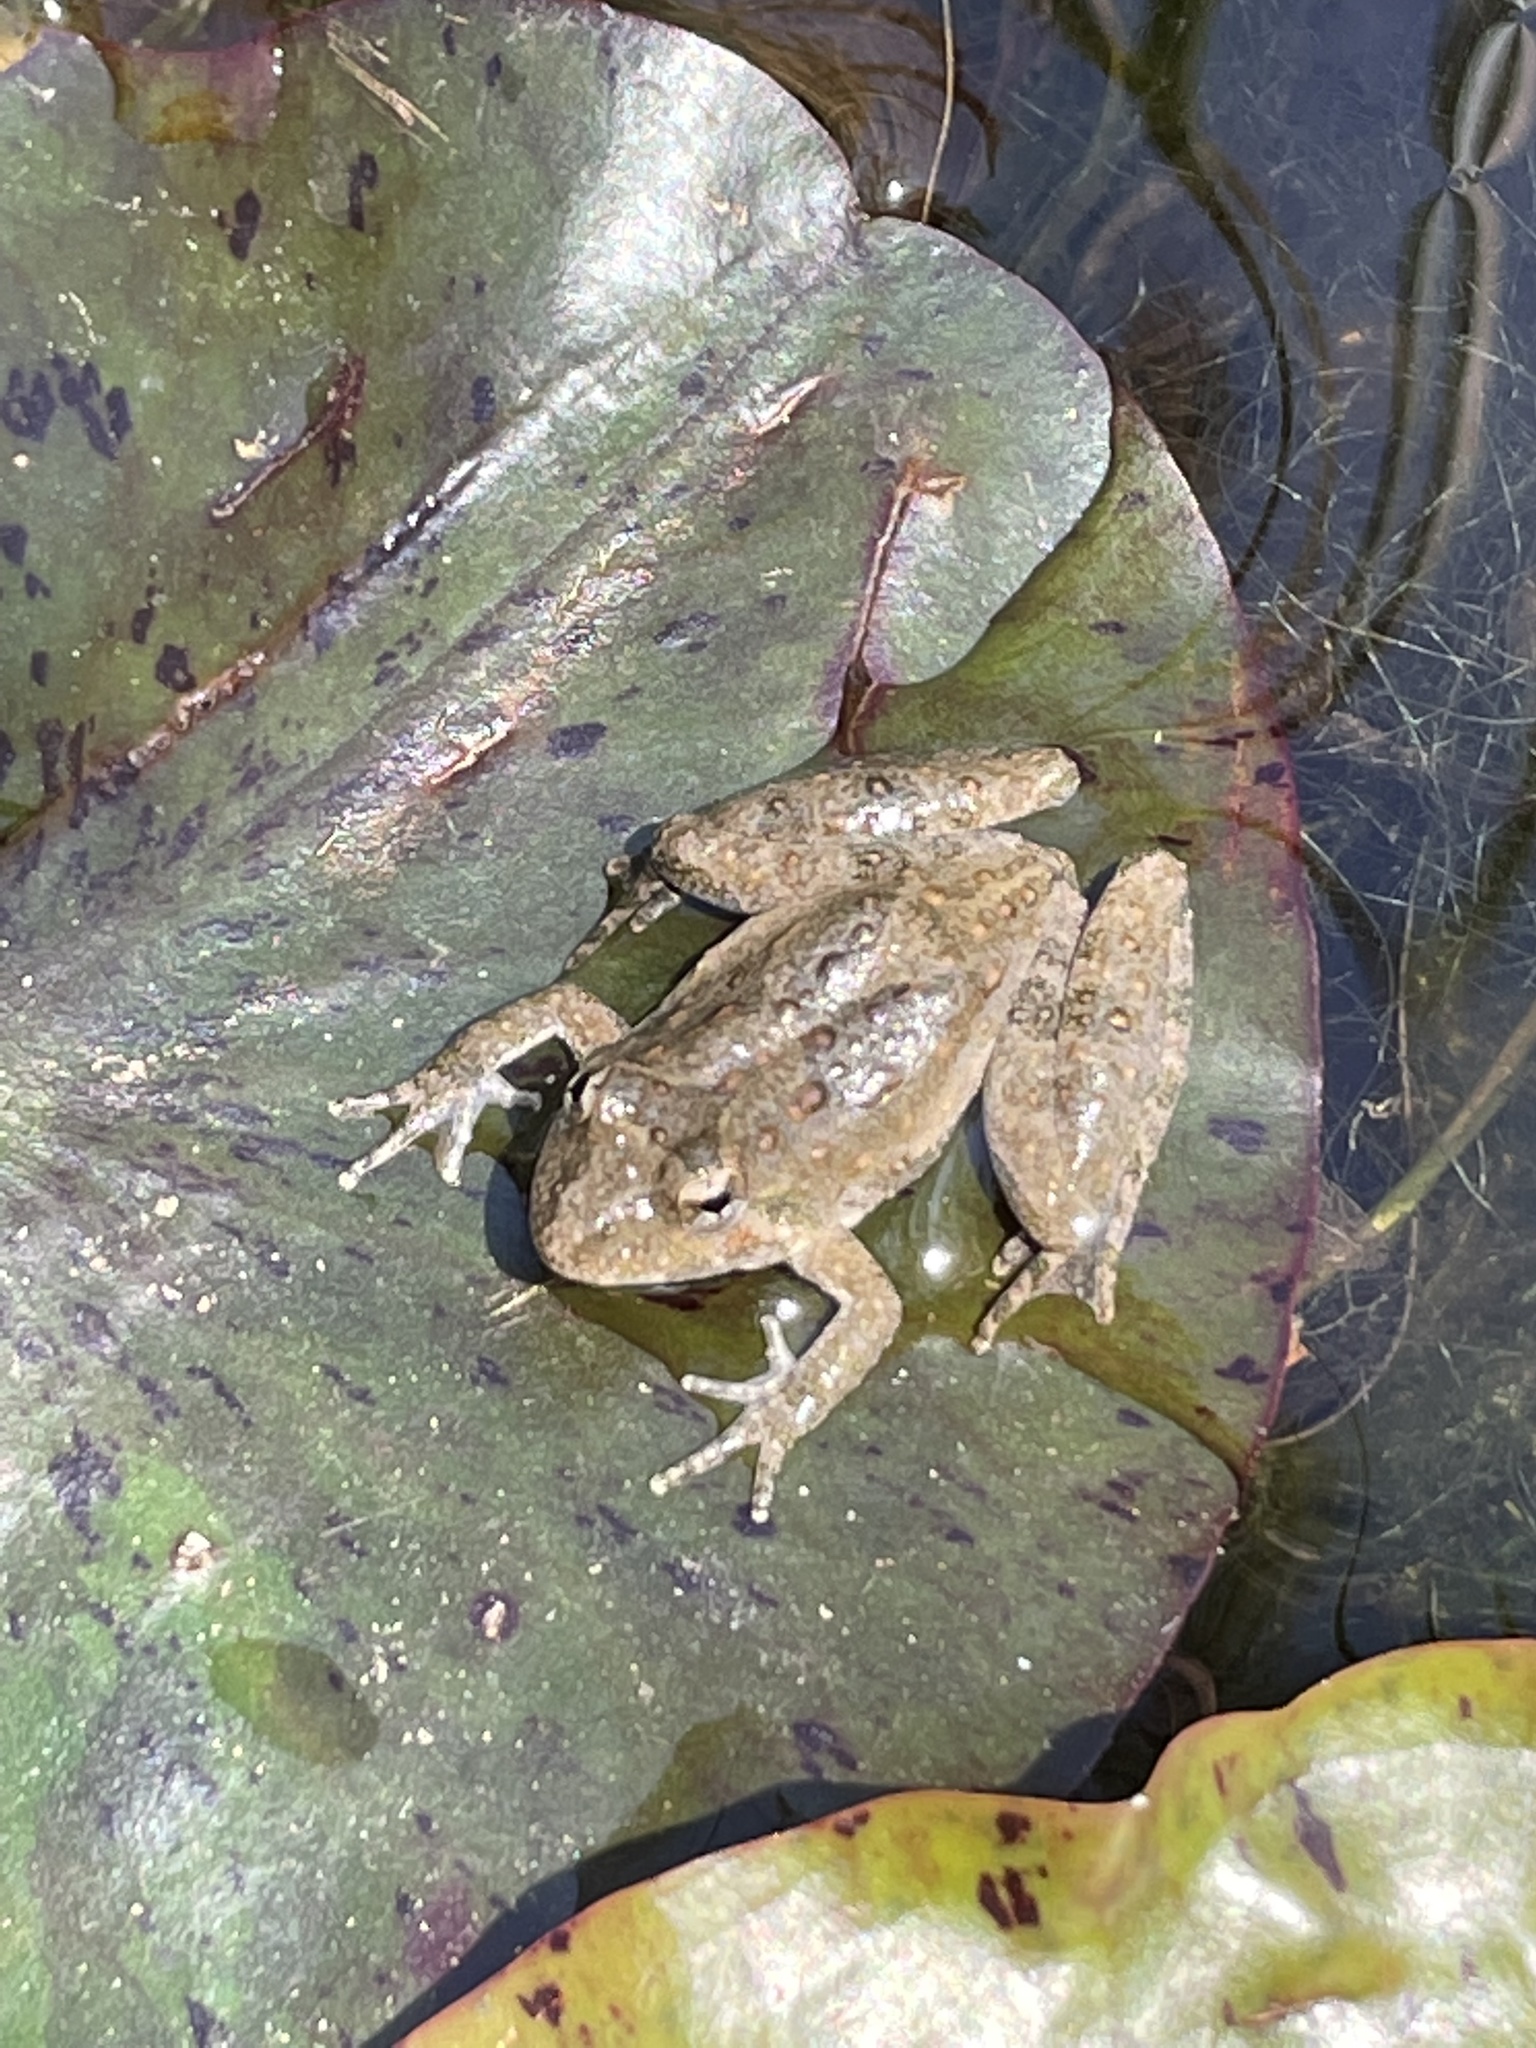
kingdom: Animalia
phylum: Chordata
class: Amphibia
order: Anura
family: Hylidae
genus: Acris
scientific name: Acris blanchardi
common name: Blanchard's cricket frog
